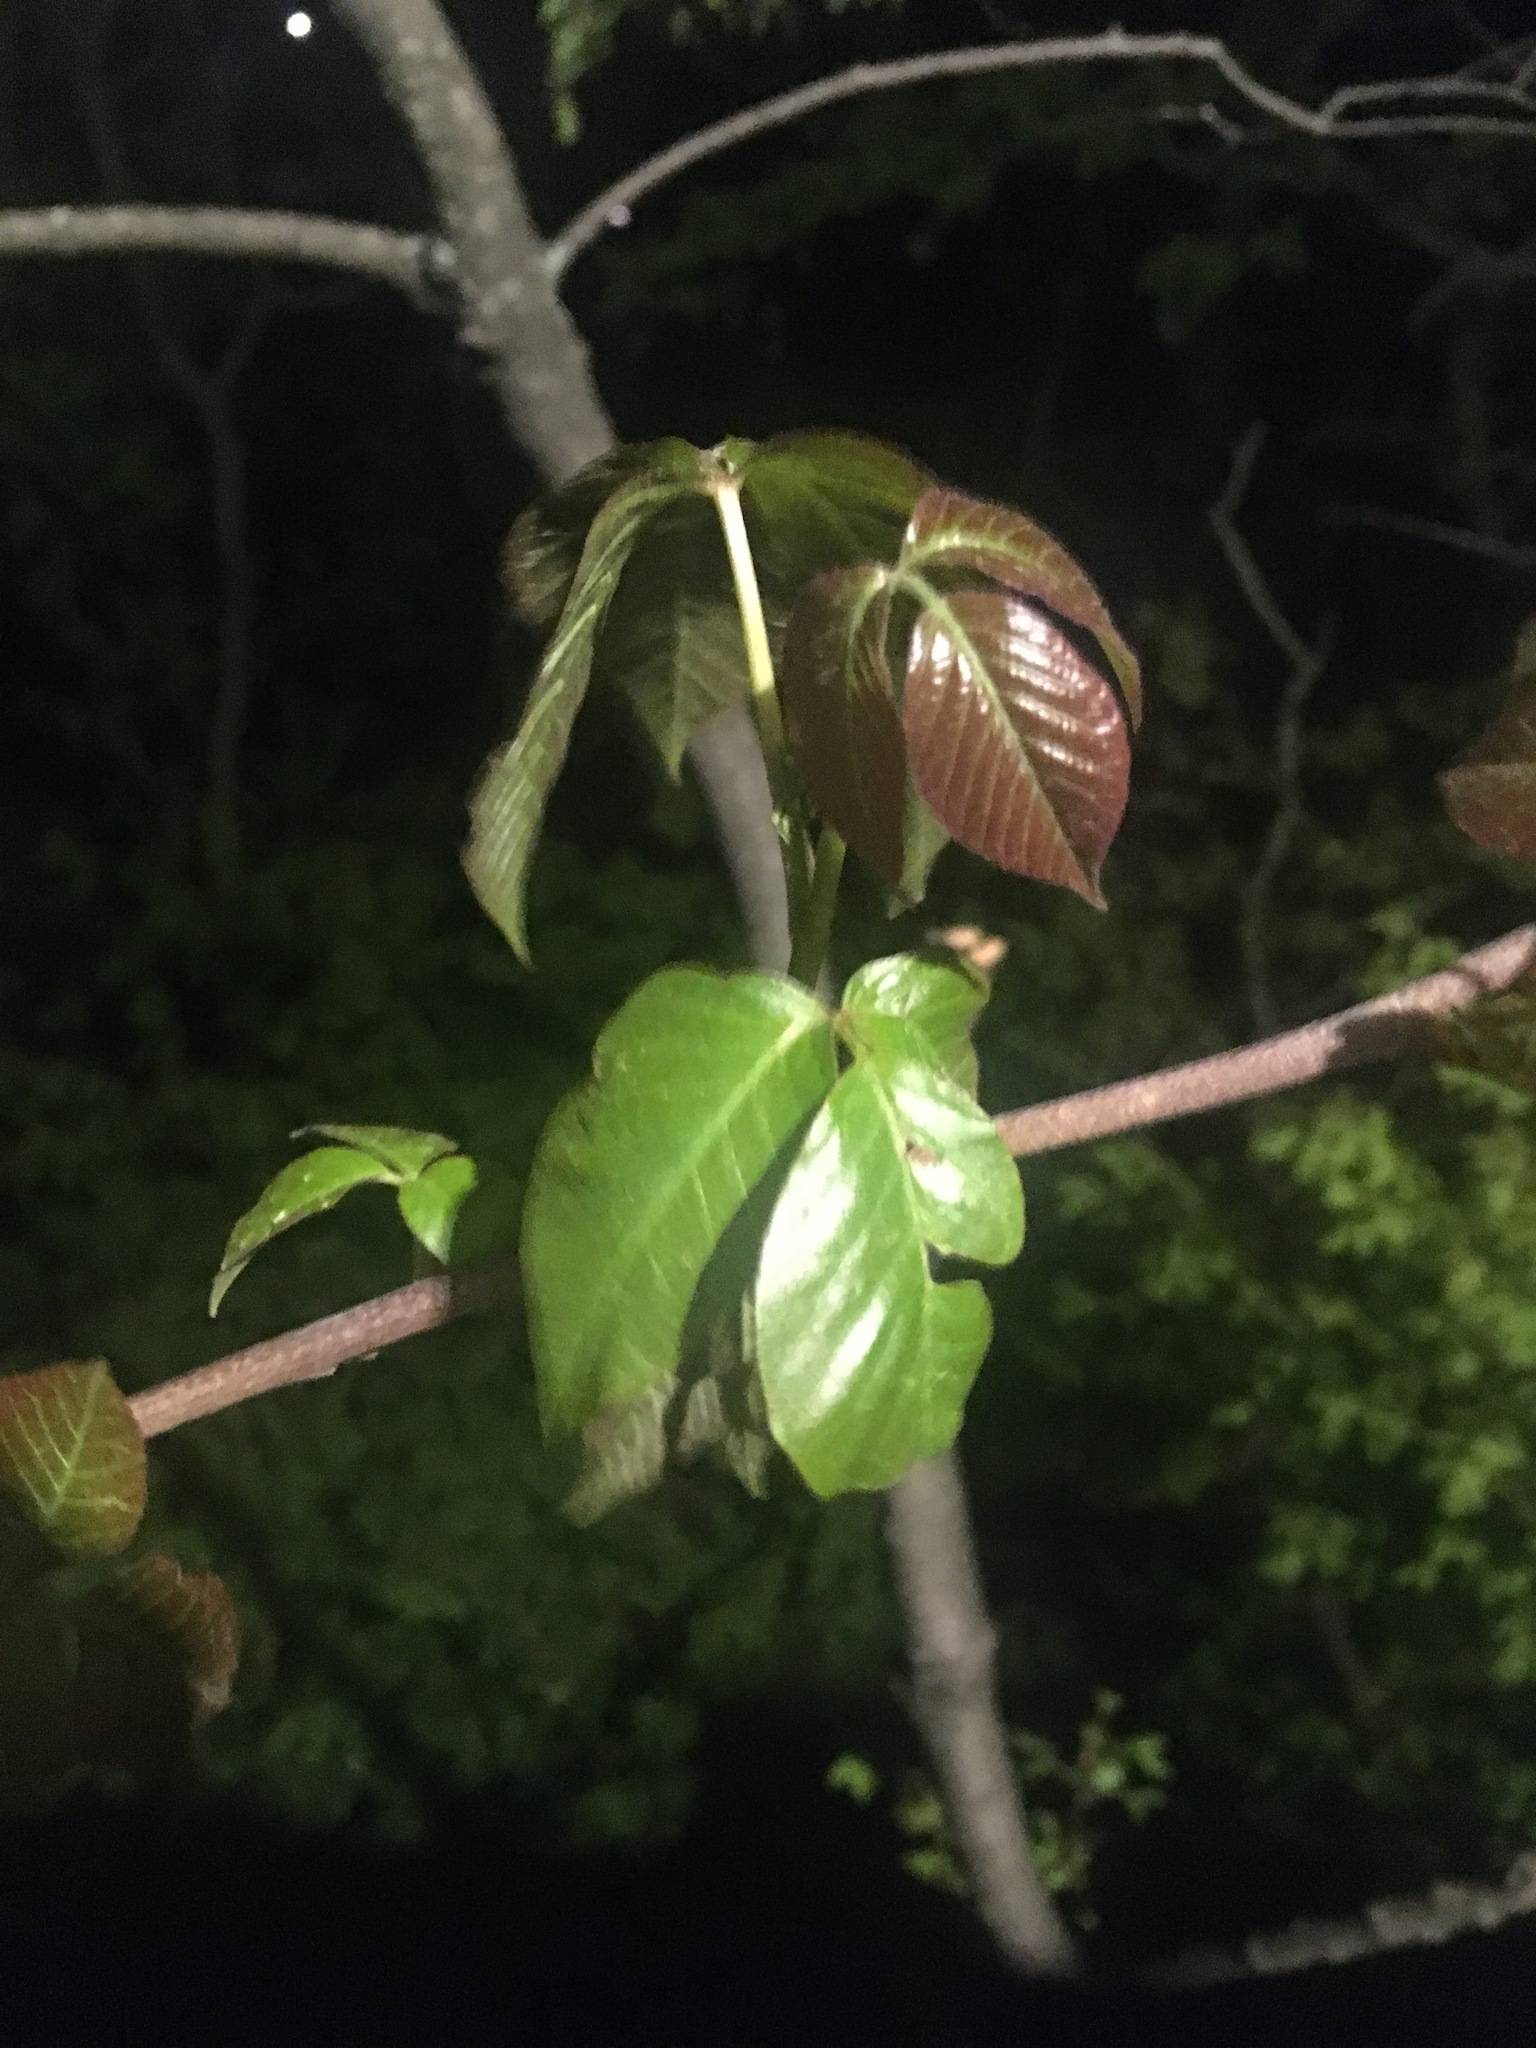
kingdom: Plantae
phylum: Tracheophyta
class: Magnoliopsida
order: Sapindales
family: Anacardiaceae
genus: Toxicodendron
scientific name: Toxicodendron radicans
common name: Poison ivy
